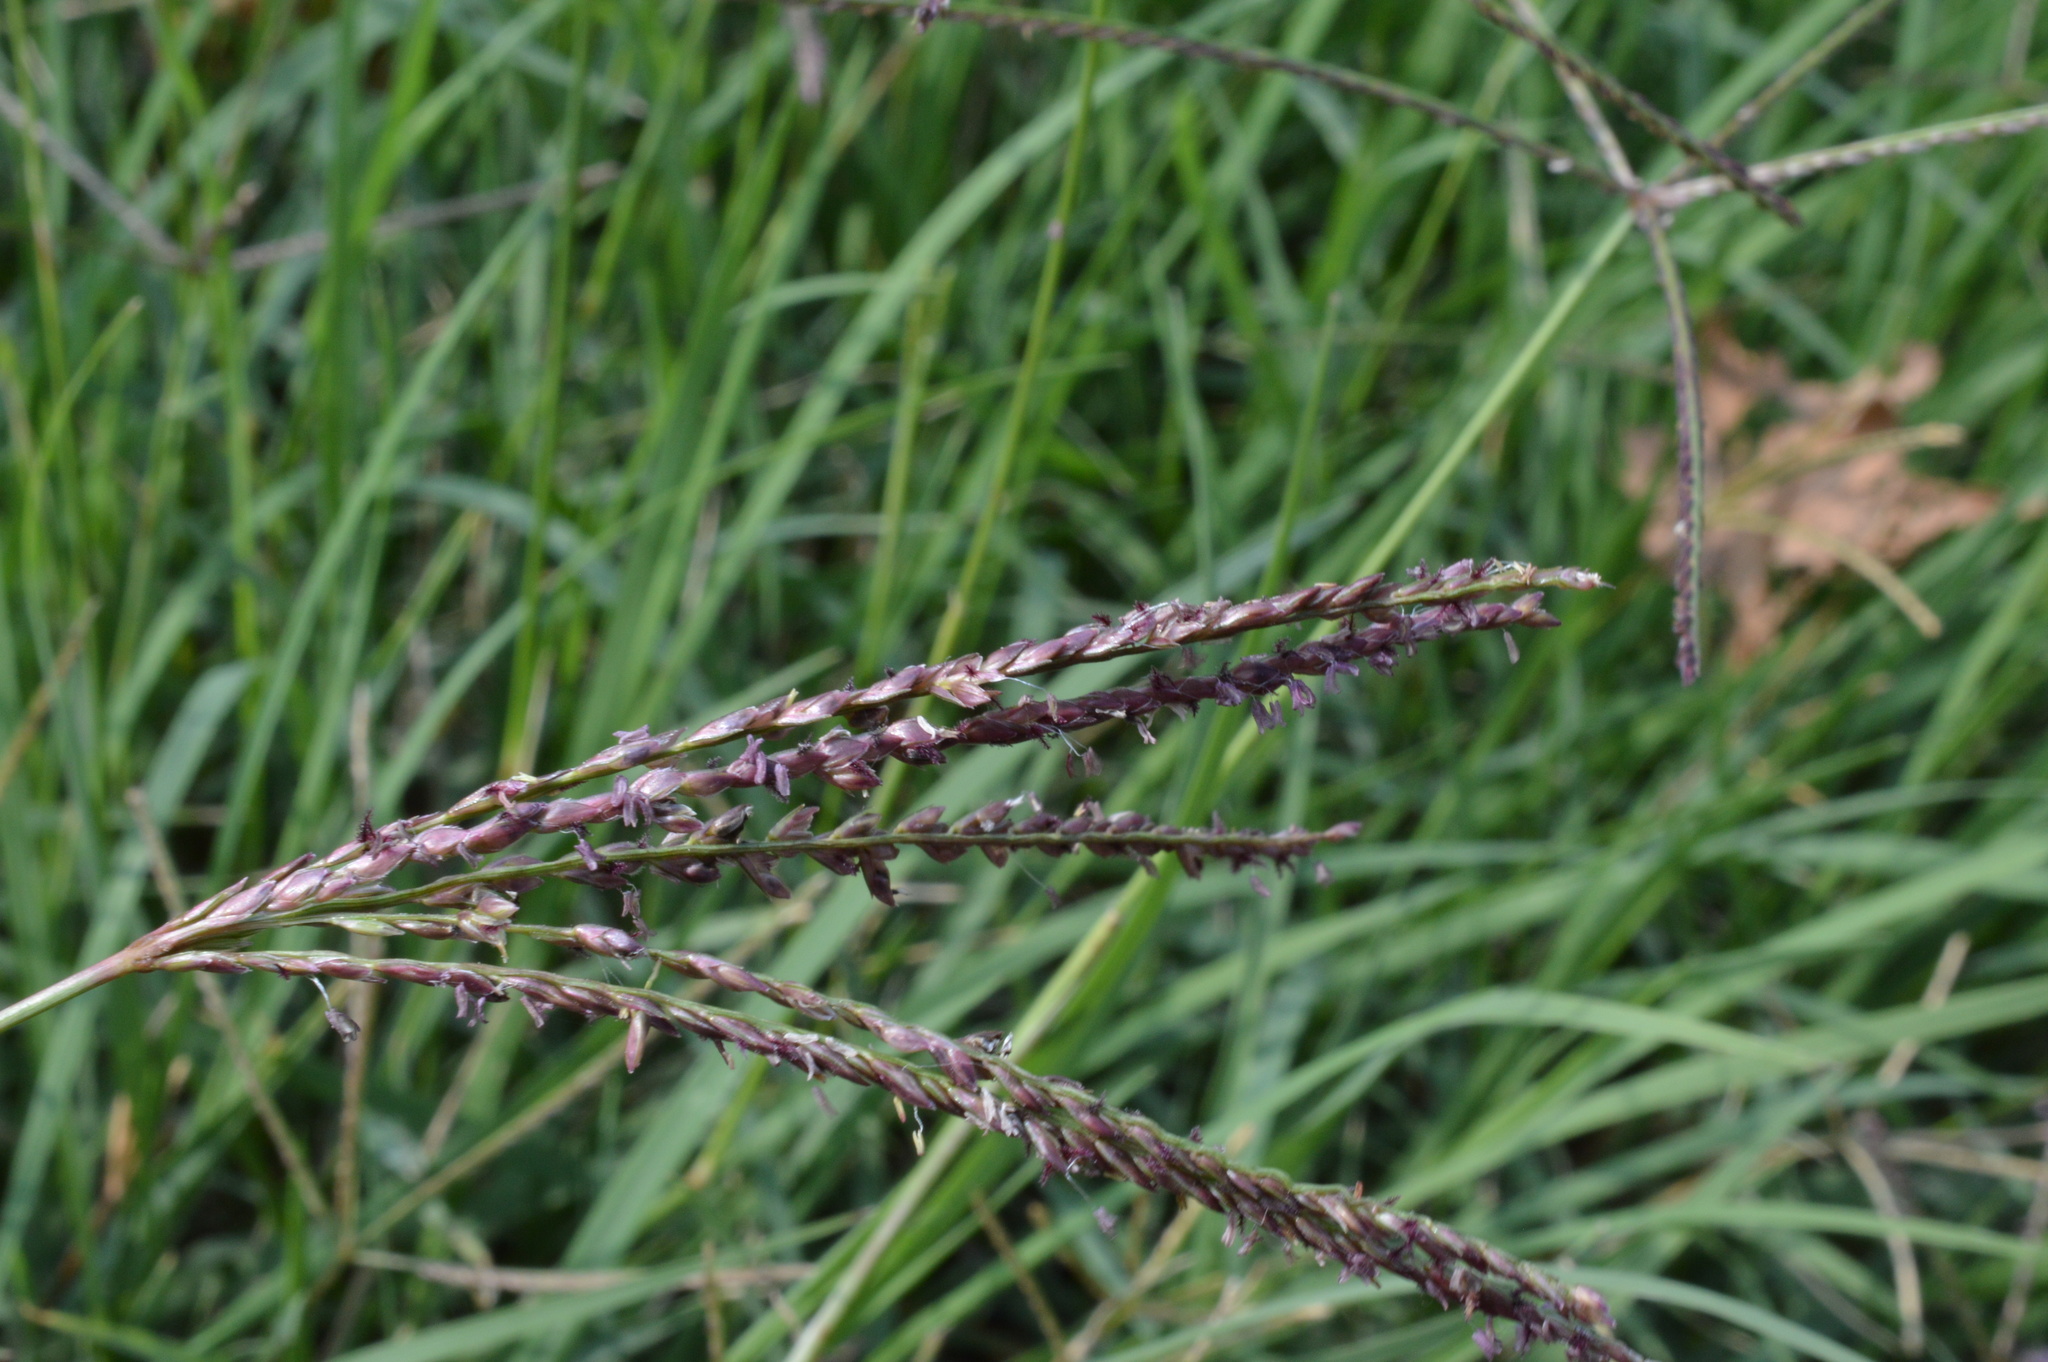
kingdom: Plantae
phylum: Tracheophyta
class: Liliopsida
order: Poales
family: Poaceae
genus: Cynodon
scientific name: Cynodon dactylon
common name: Bermuda grass
